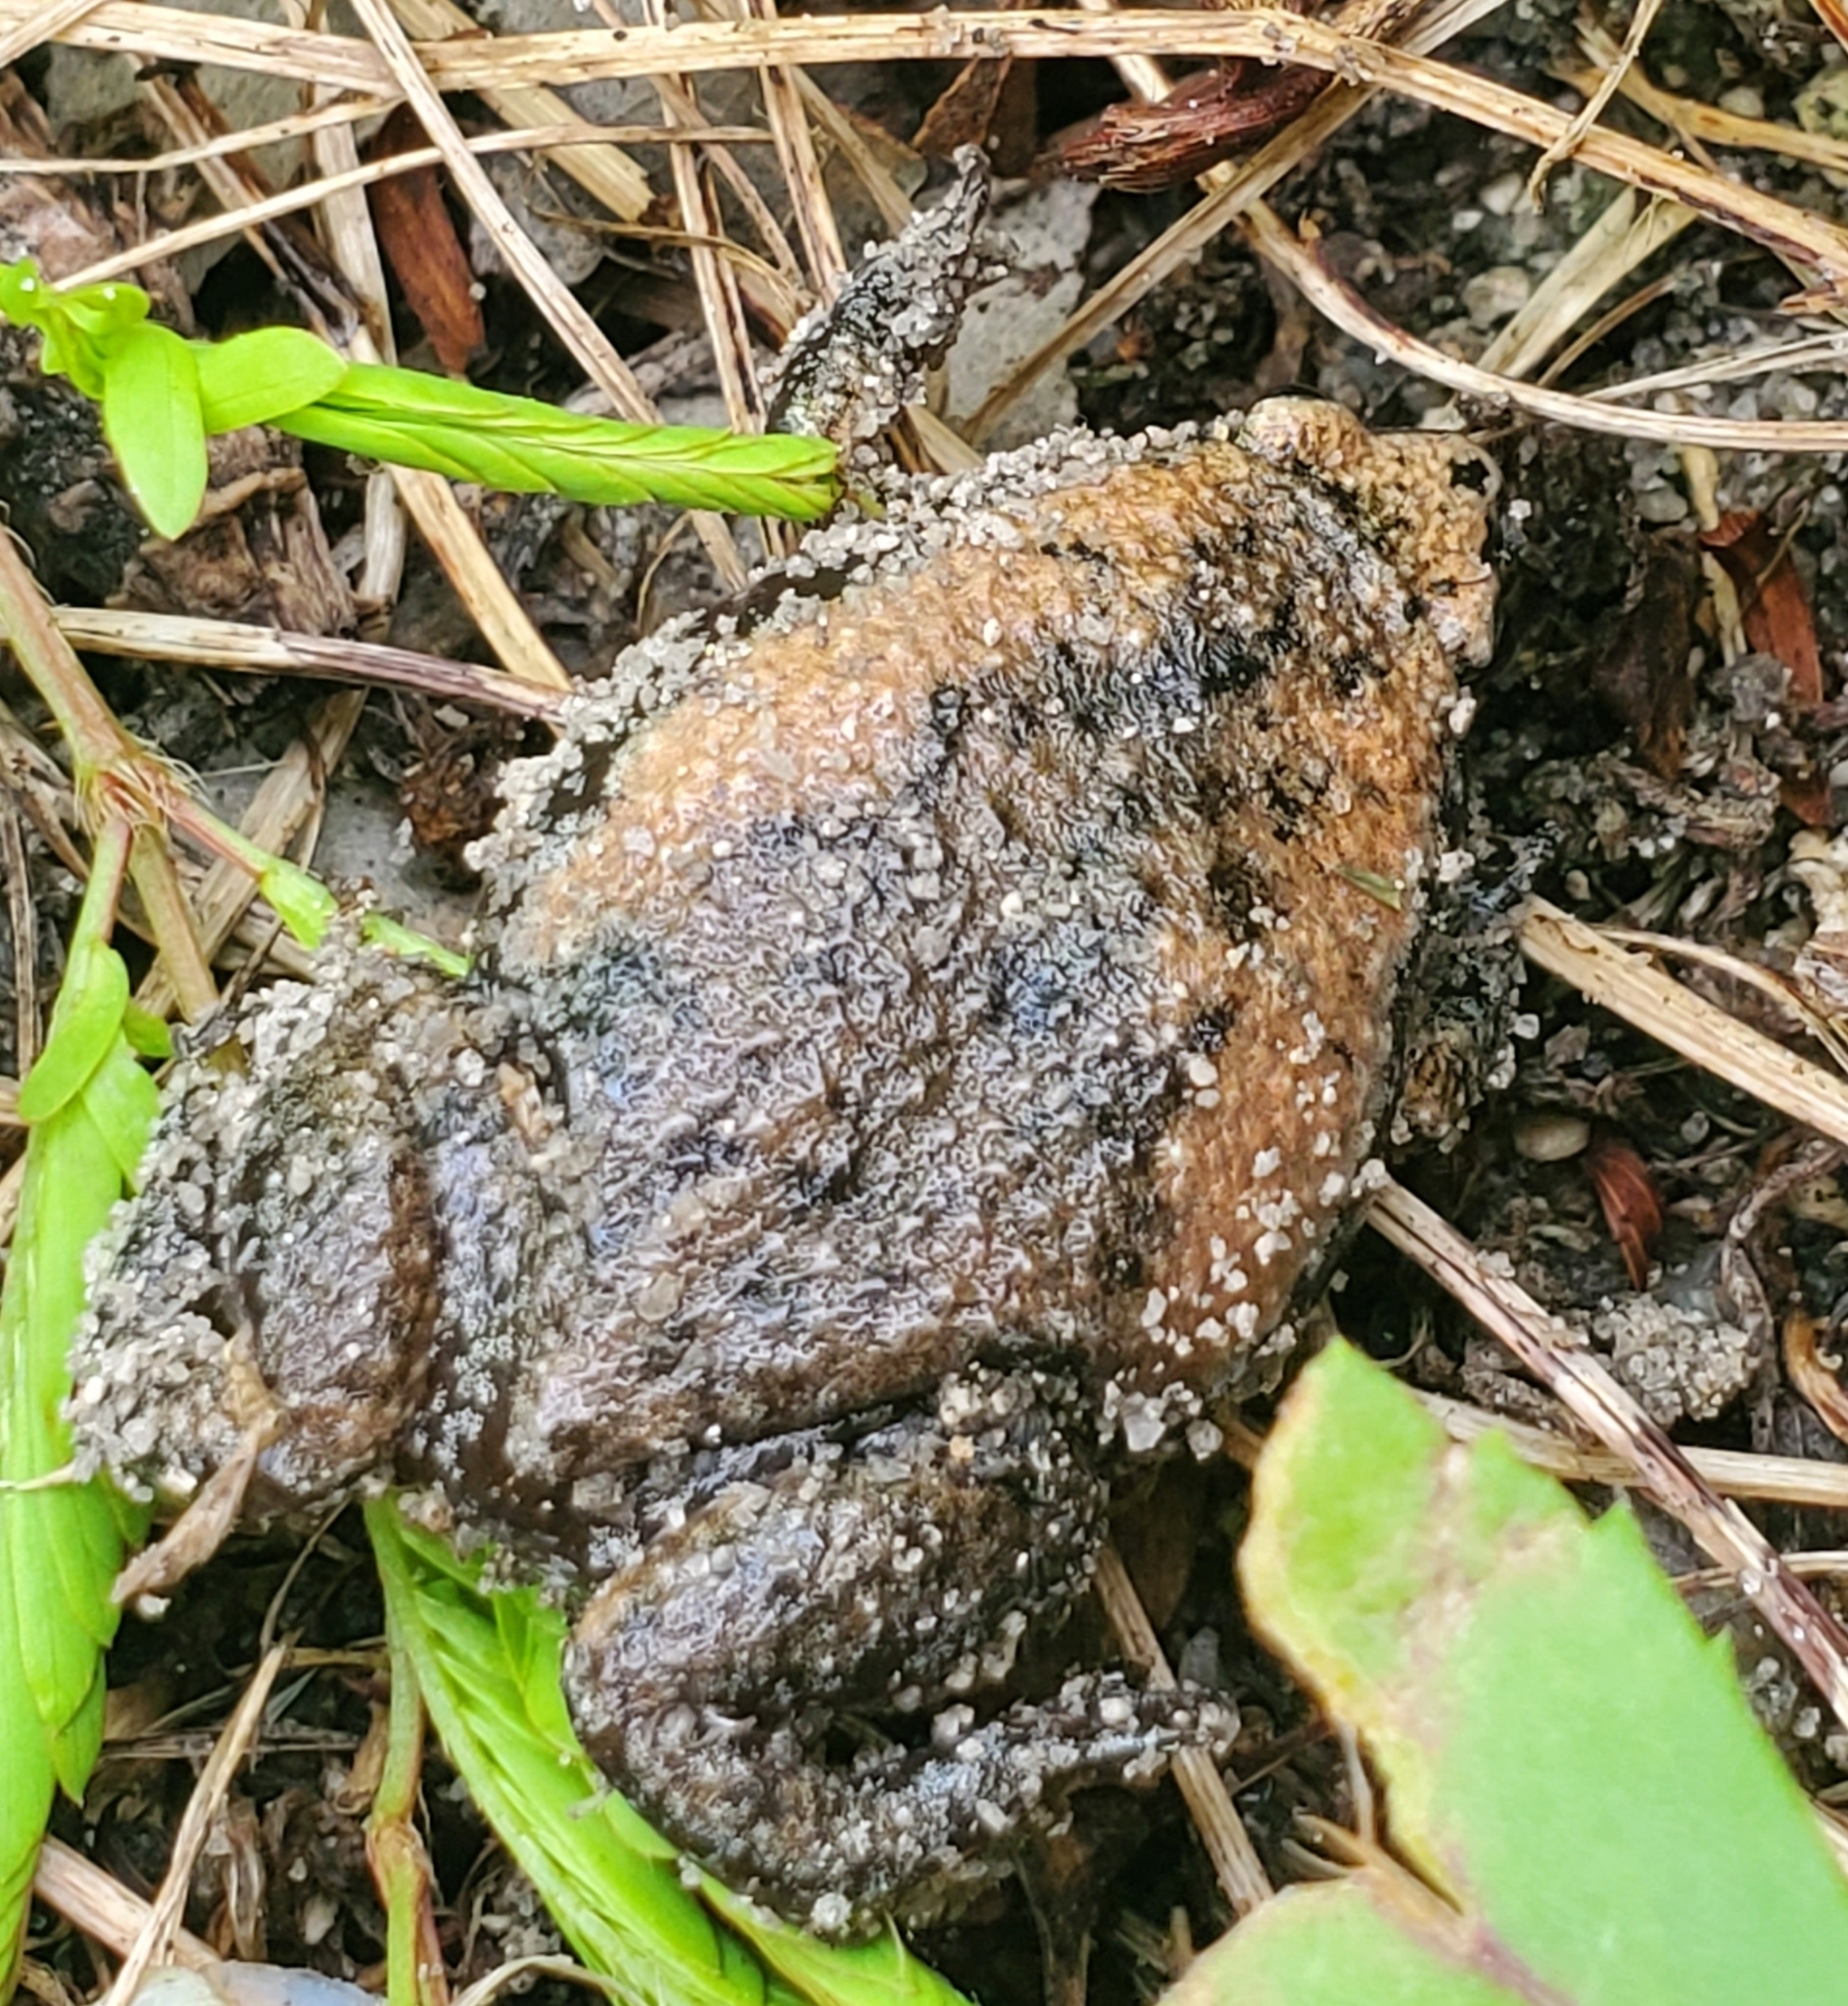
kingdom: Animalia
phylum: Chordata
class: Amphibia
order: Anura
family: Microhylidae
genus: Gastrophryne
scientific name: Gastrophryne carolinensis
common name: Eastern narrowmouth toad
